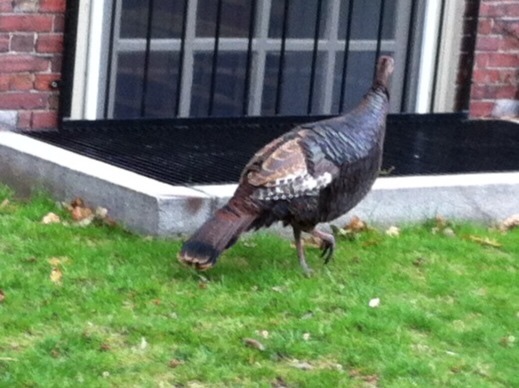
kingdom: Animalia
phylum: Chordata
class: Aves
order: Galliformes
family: Phasianidae
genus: Meleagris
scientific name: Meleagris gallopavo
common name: Wild turkey
